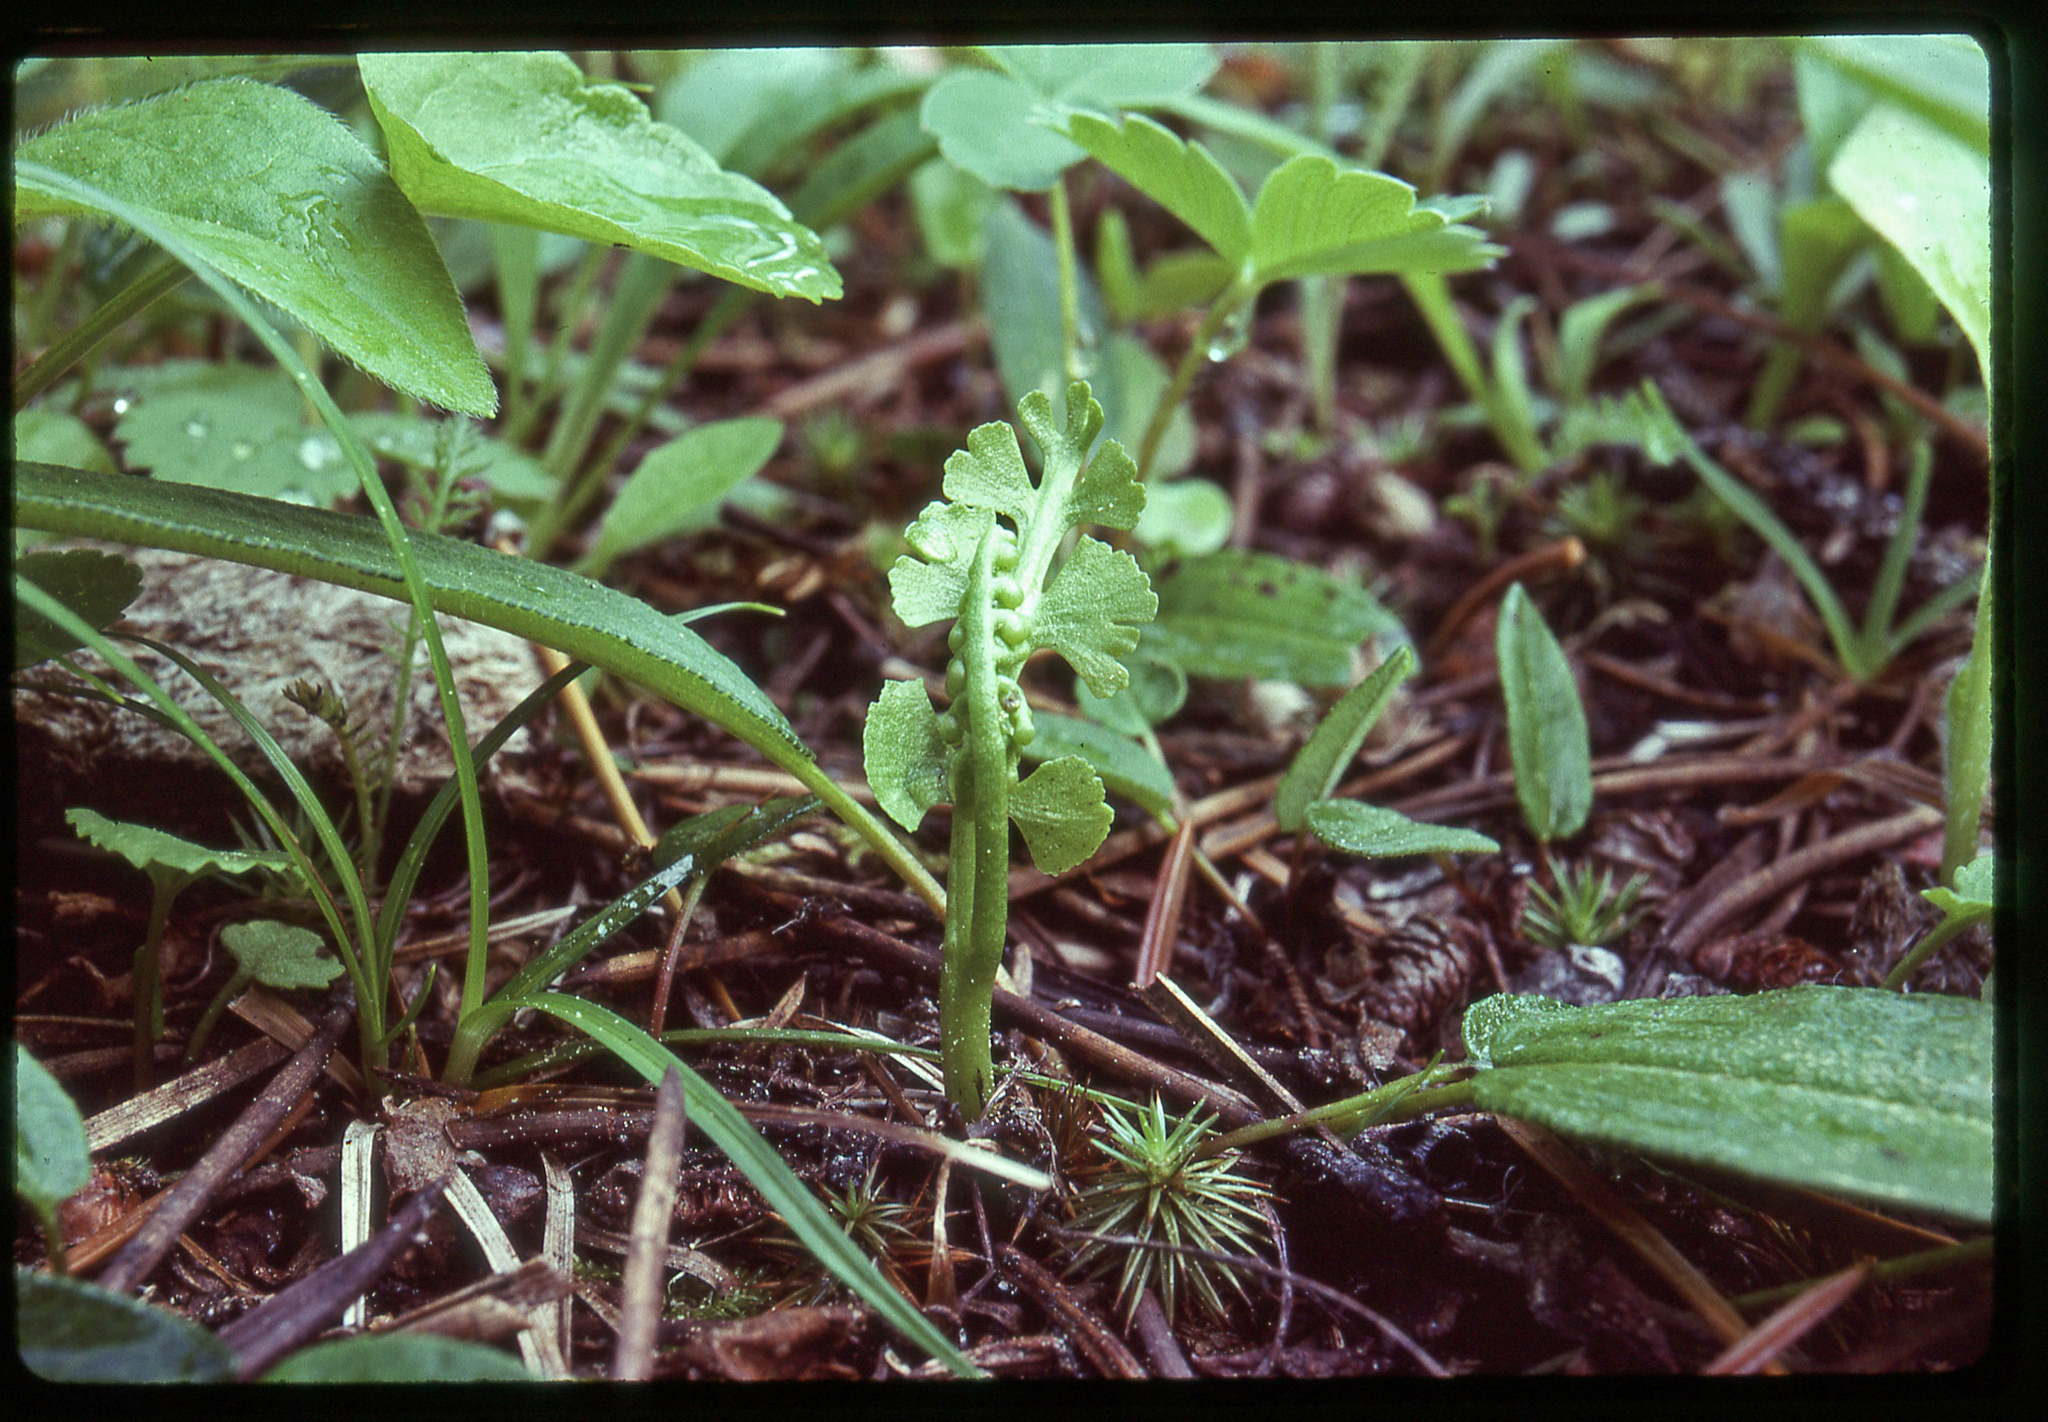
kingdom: Plantae
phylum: Tracheophyta
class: Polypodiopsida
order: Ophioglossales
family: Ophioglossaceae
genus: Botrychium
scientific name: Botrychium crenulatum
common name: Crenulate moonwort
